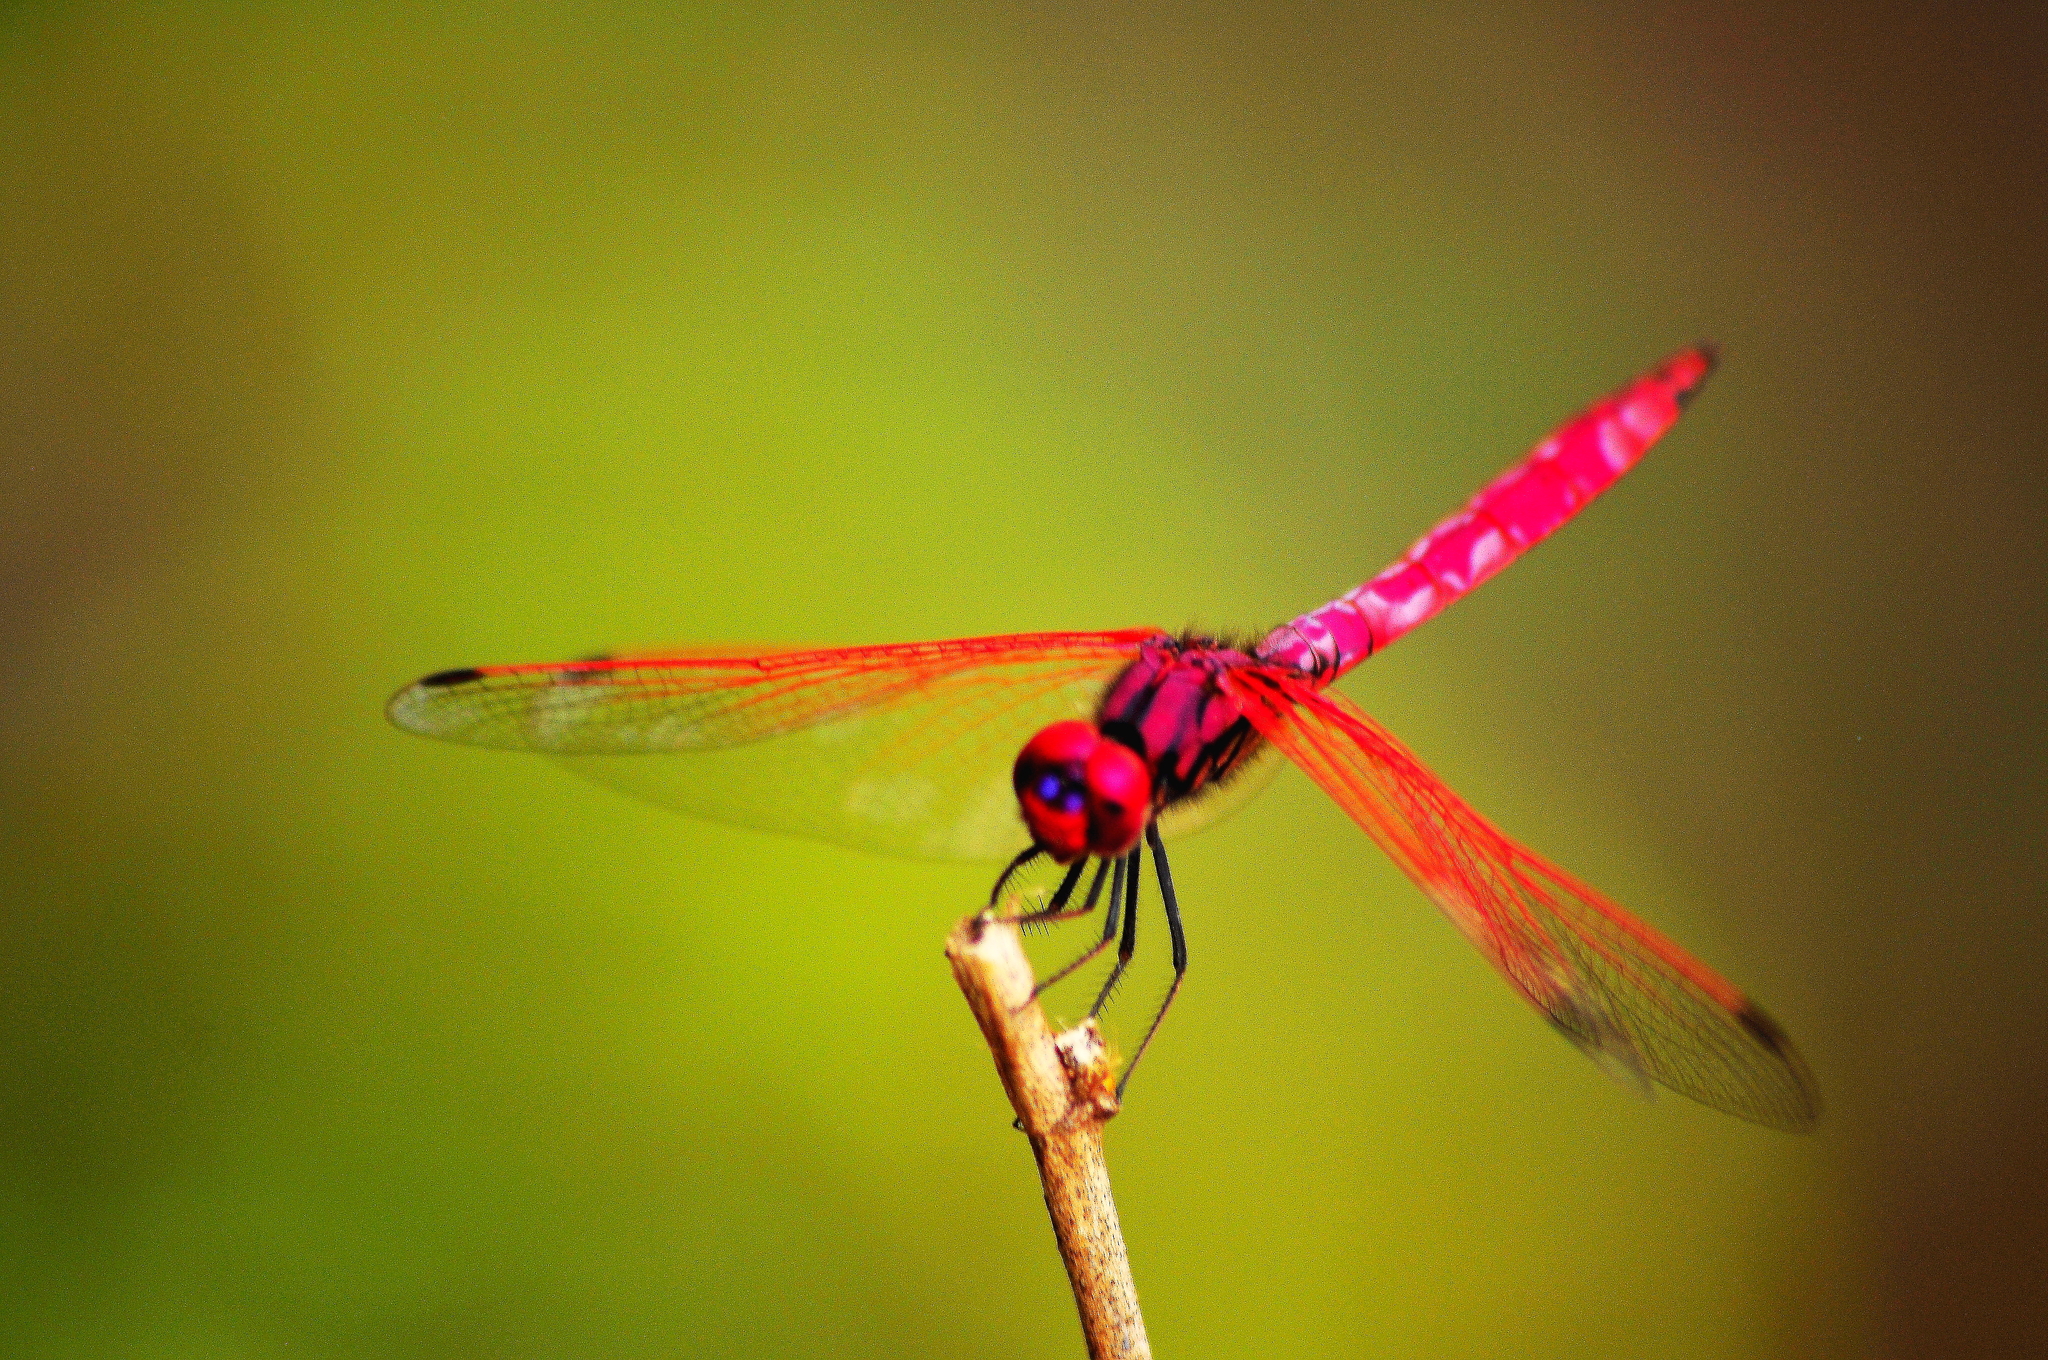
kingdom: Animalia
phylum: Arthropoda
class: Insecta
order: Odonata
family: Libellulidae
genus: Trithemis
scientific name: Trithemis aurora
